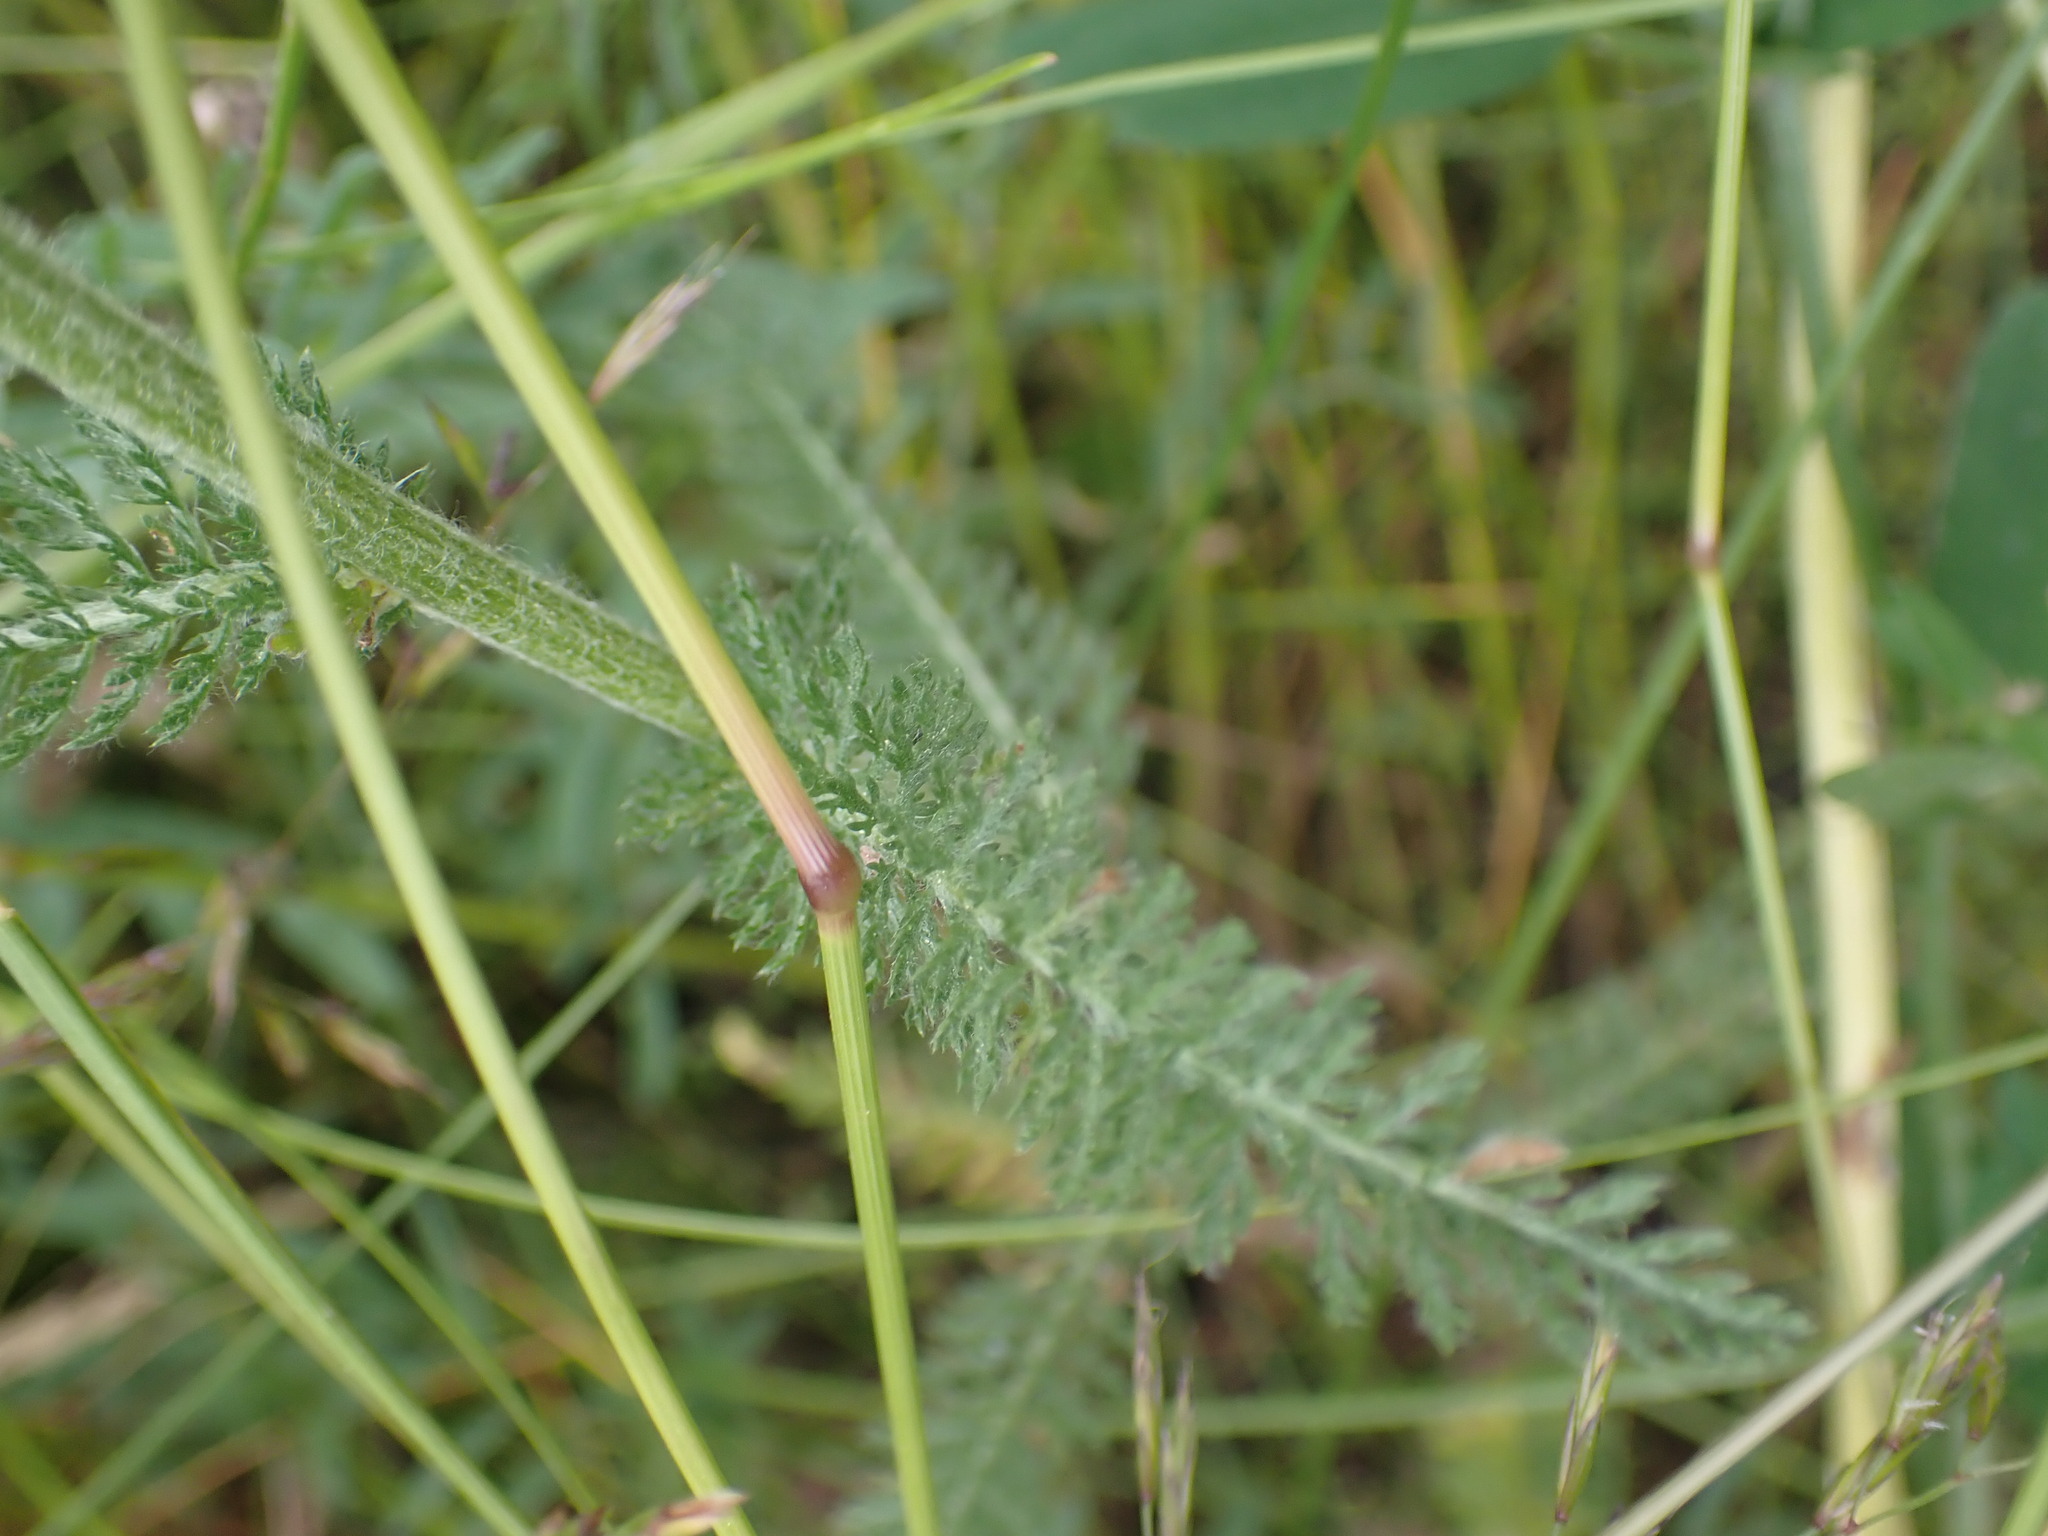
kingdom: Plantae
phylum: Tracheophyta
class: Magnoliopsida
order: Asterales
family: Asteraceae
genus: Achillea
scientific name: Achillea millefolium
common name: Yarrow
